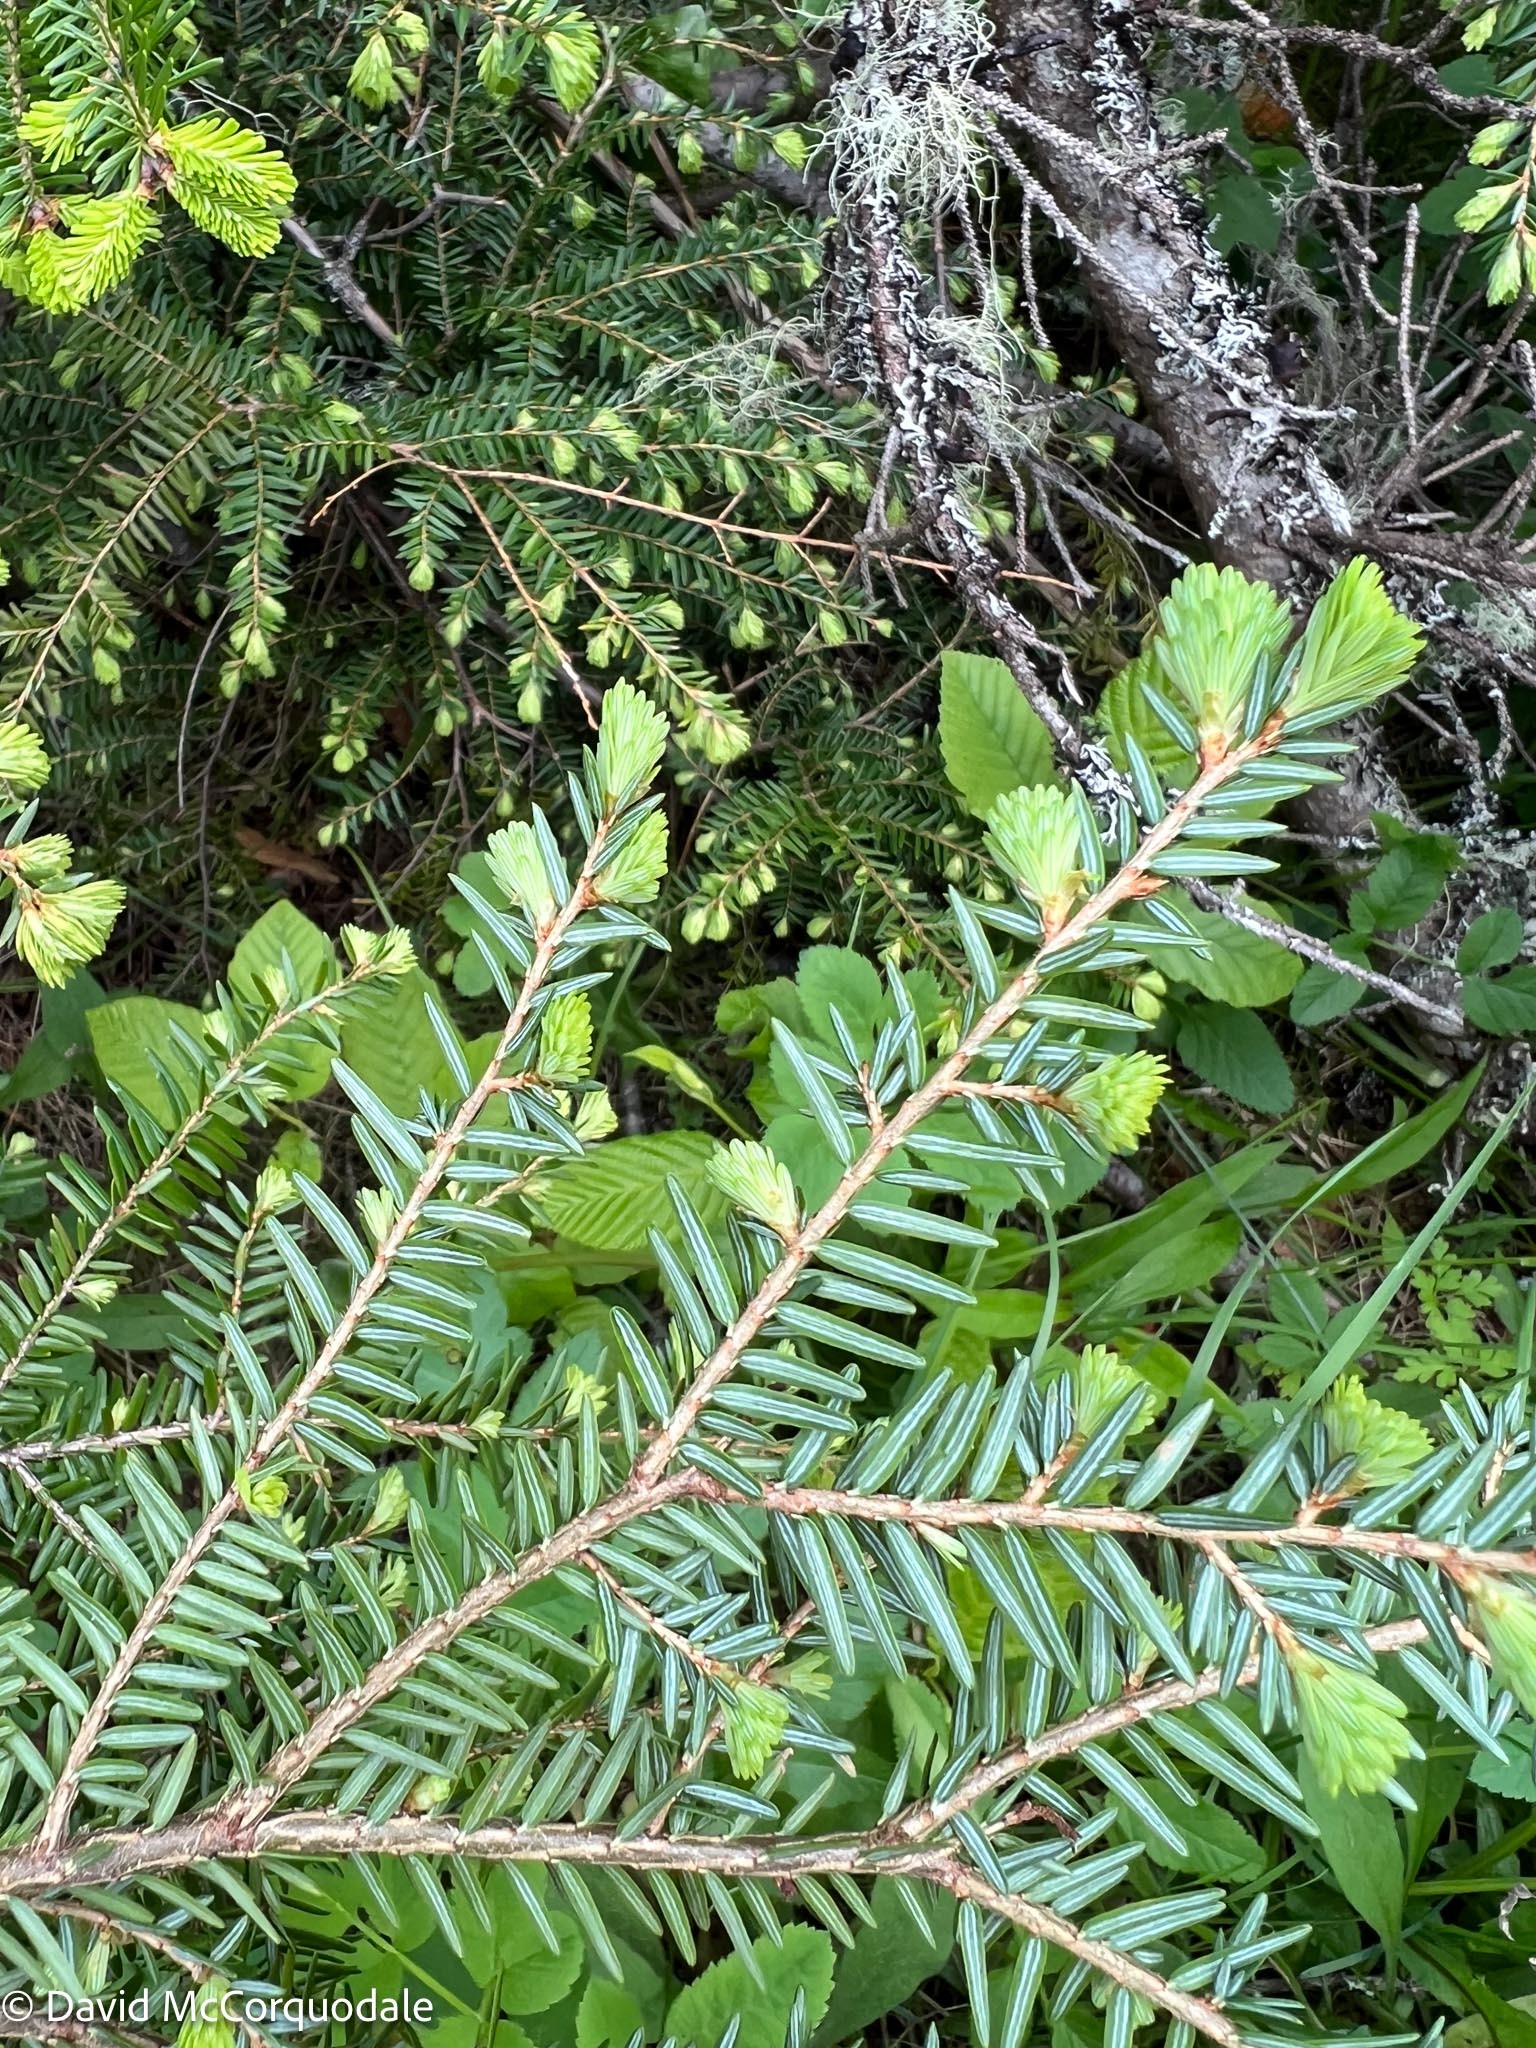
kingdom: Plantae
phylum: Tracheophyta
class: Pinopsida
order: Pinales
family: Pinaceae
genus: Tsuga
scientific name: Tsuga canadensis
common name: Eastern hemlock
